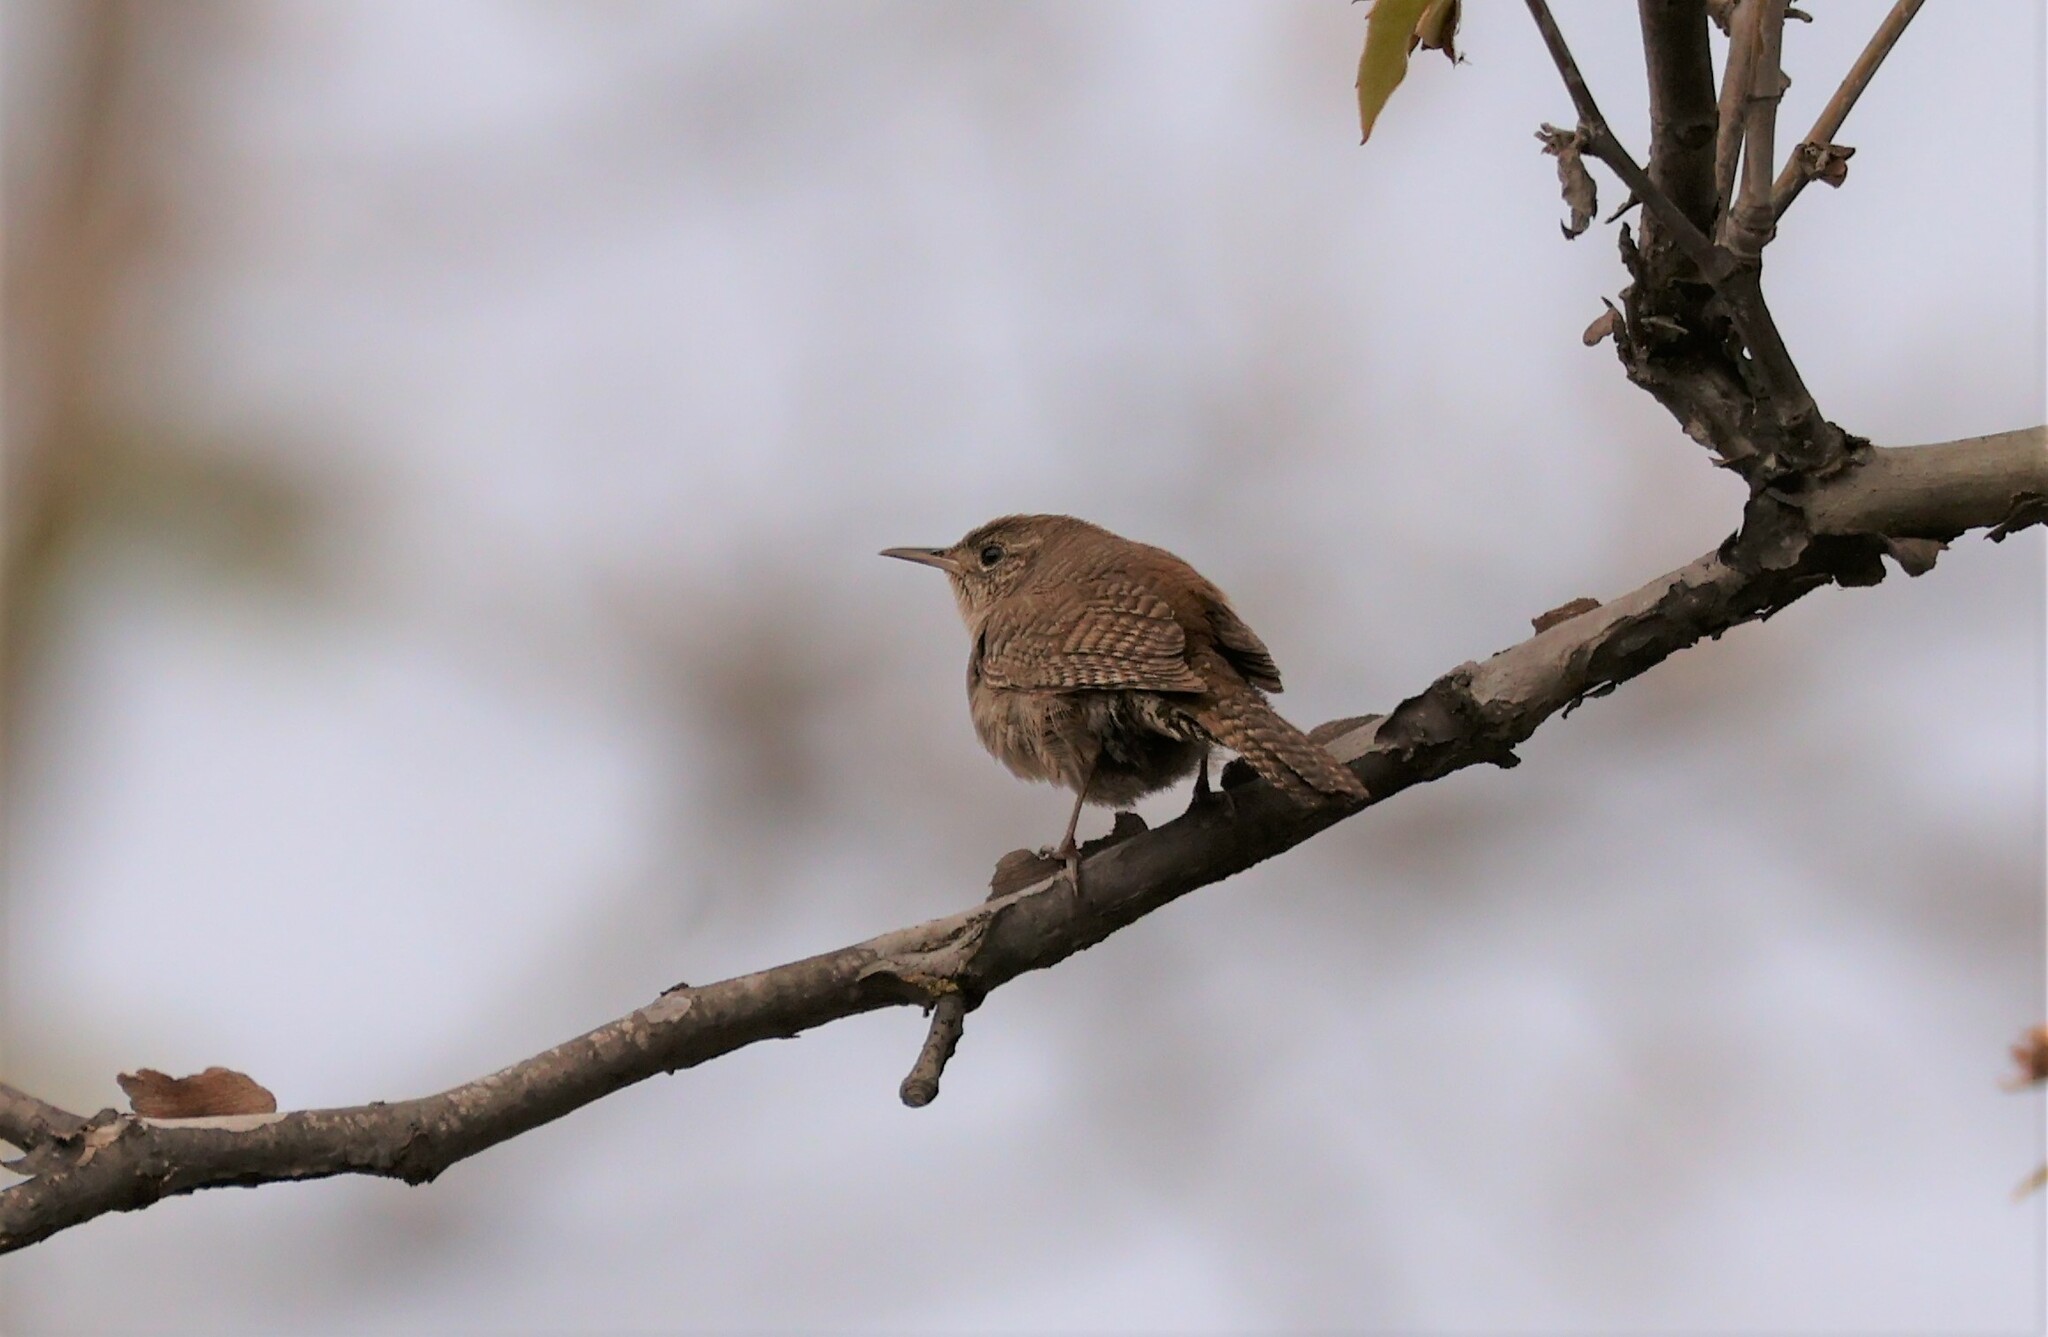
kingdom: Animalia
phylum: Chordata
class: Aves
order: Passeriformes
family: Troglodytidae
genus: Troglodytes
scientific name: Troglodytes aedon
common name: House wren
